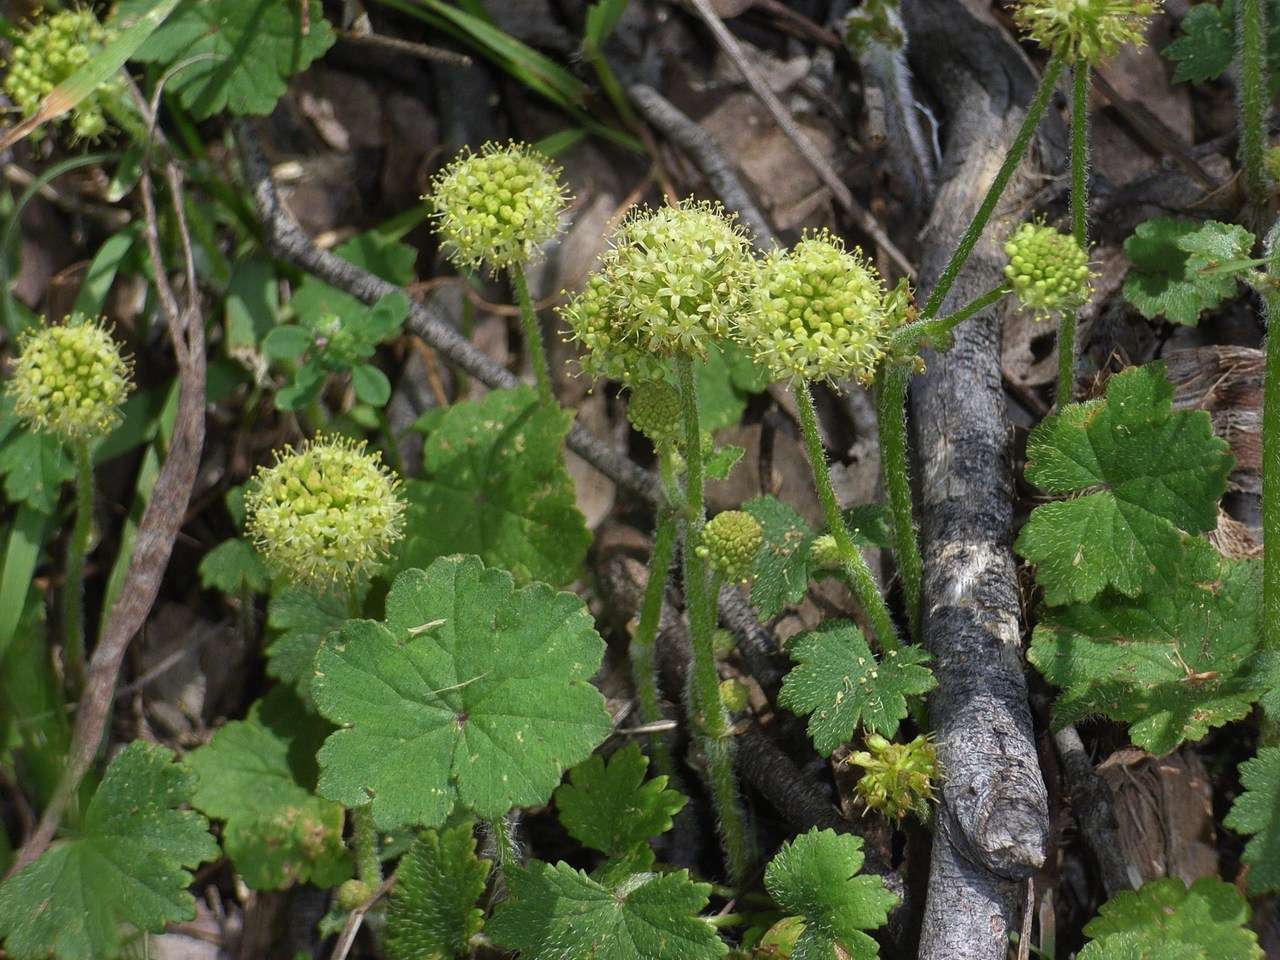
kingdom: Plantae
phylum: Tracheophyta
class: Magnoliopsida
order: Apiales
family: Araliaceae
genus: Hydrocotyle
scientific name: Hydrocotyle laxiflora
